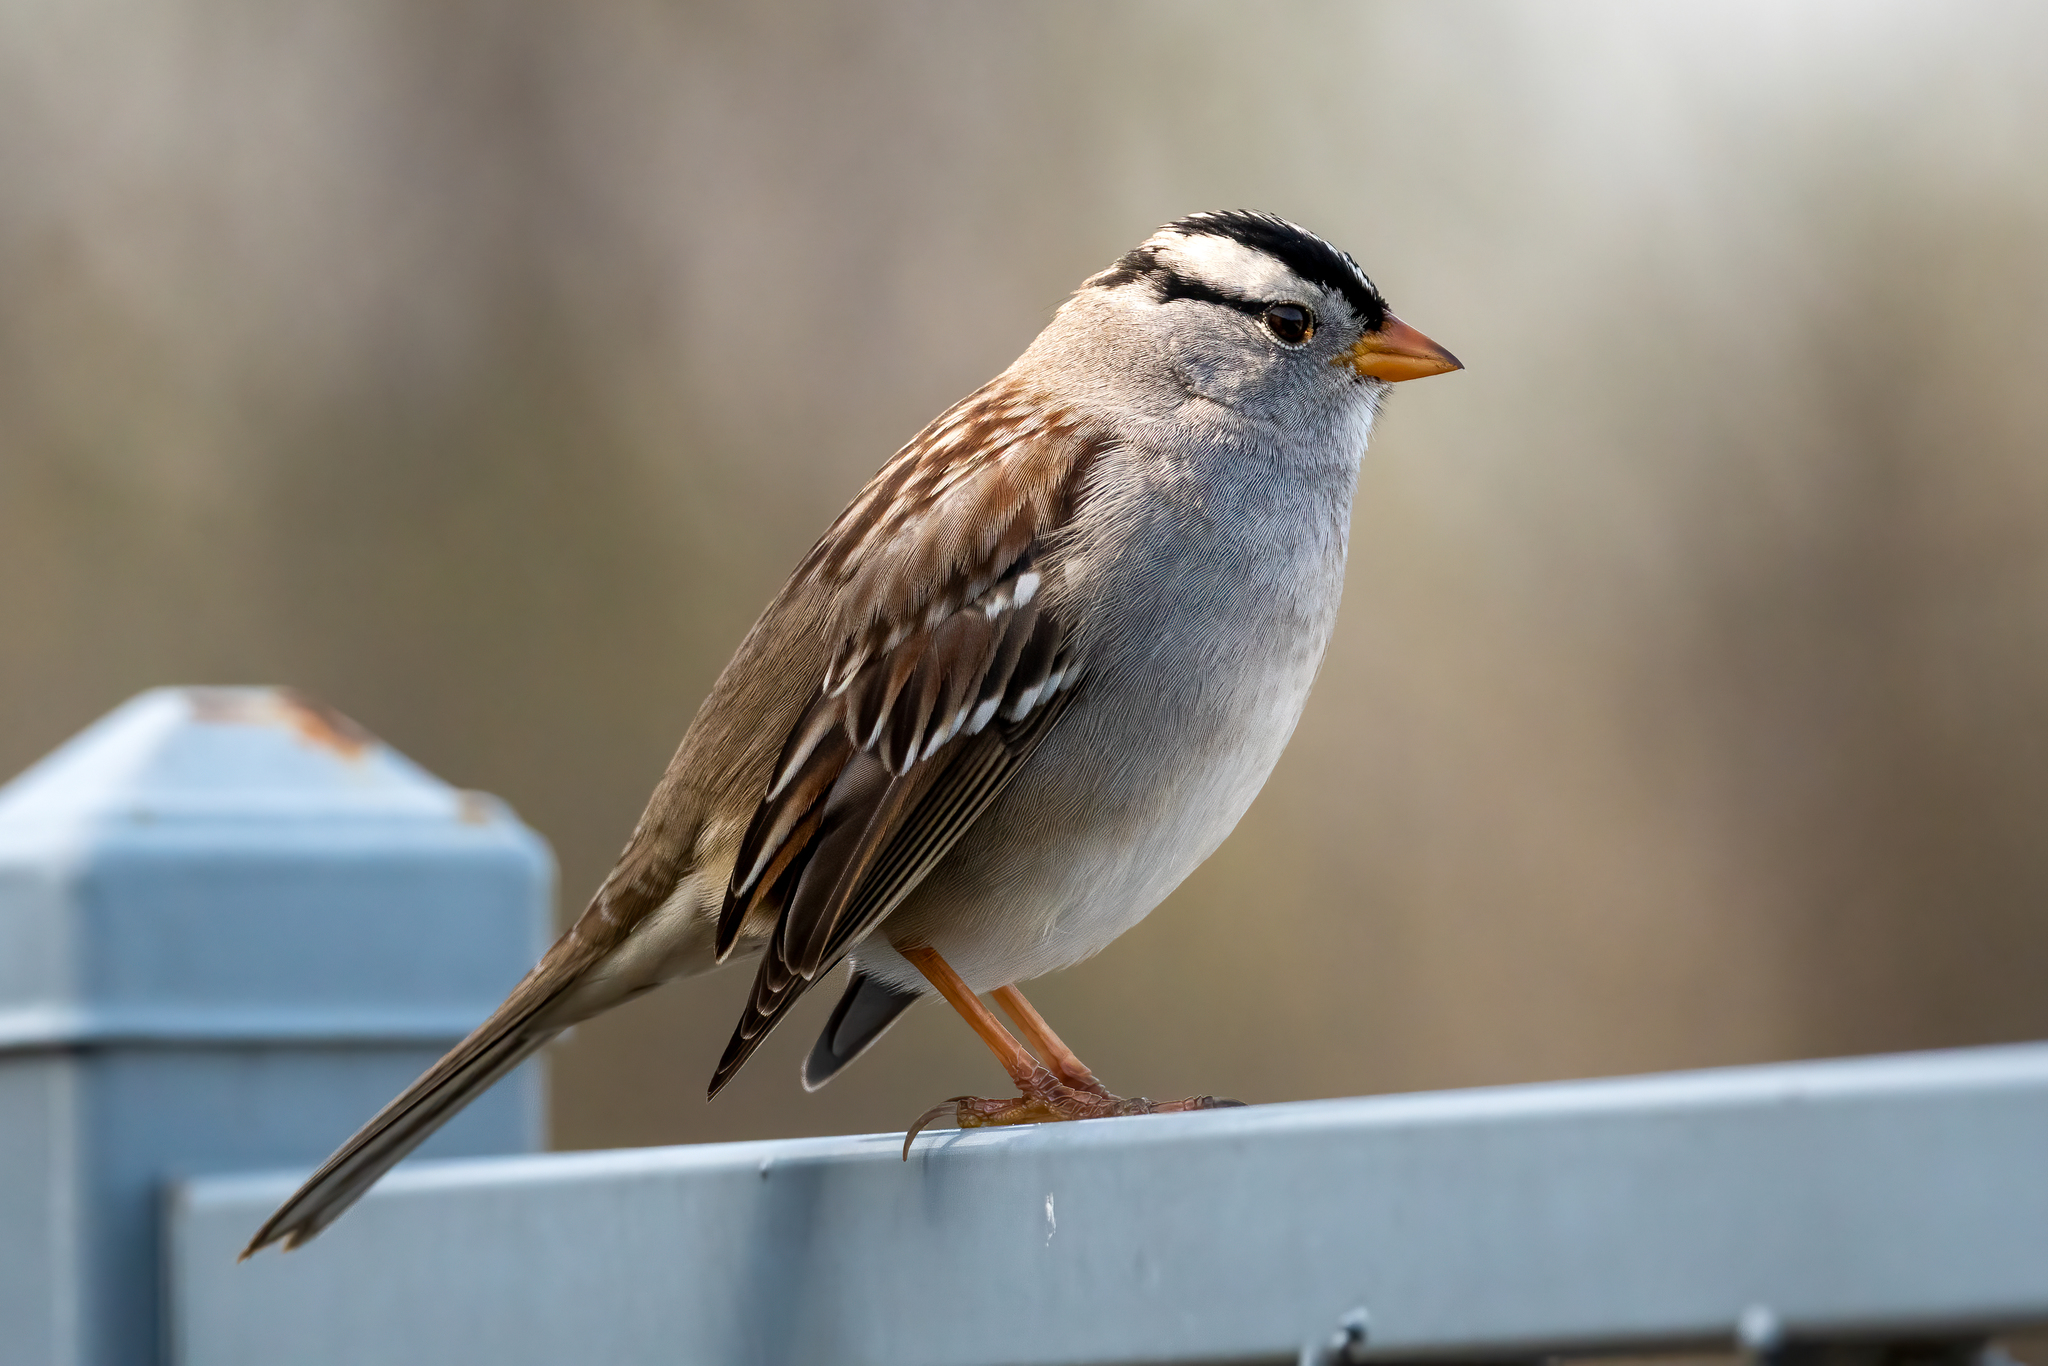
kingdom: Animalia
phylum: Chordata
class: Aves
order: Passeriformes
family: Passerellidae
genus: Zonotrichia
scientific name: Zonotrichia leucophrys
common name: White-crowned sparrow
